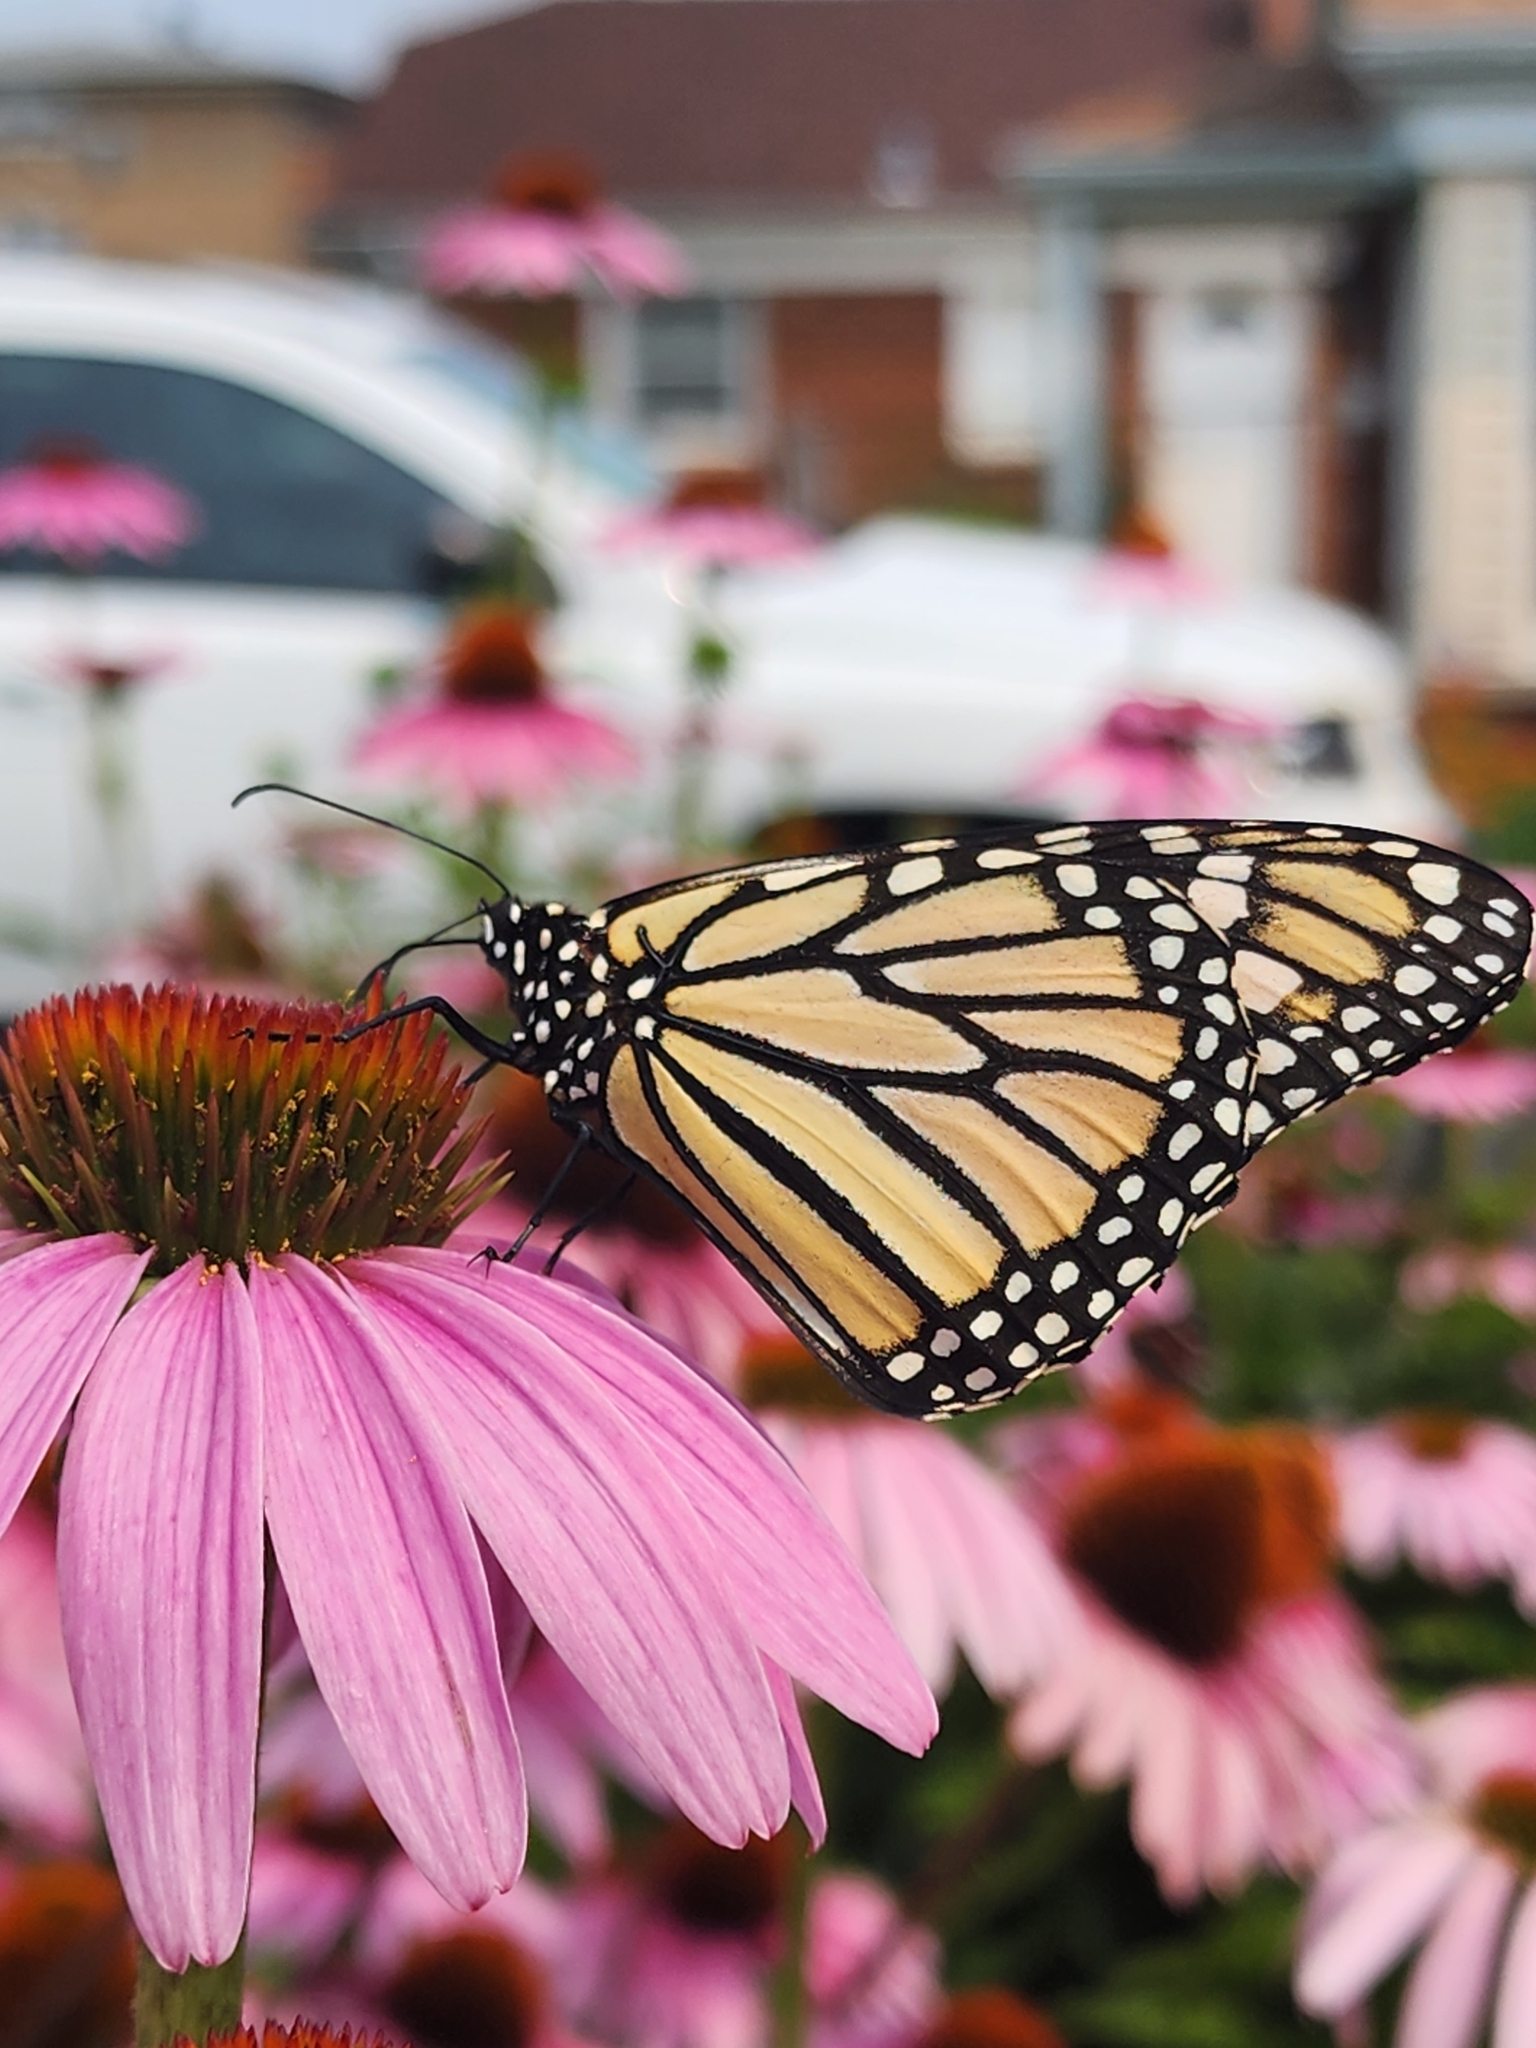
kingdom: Animalia
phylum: Arthropoda
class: Insecta
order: Lepidoptera
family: Nymphalidae
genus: Danaus
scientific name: Danaus plexippus
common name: Monarch
